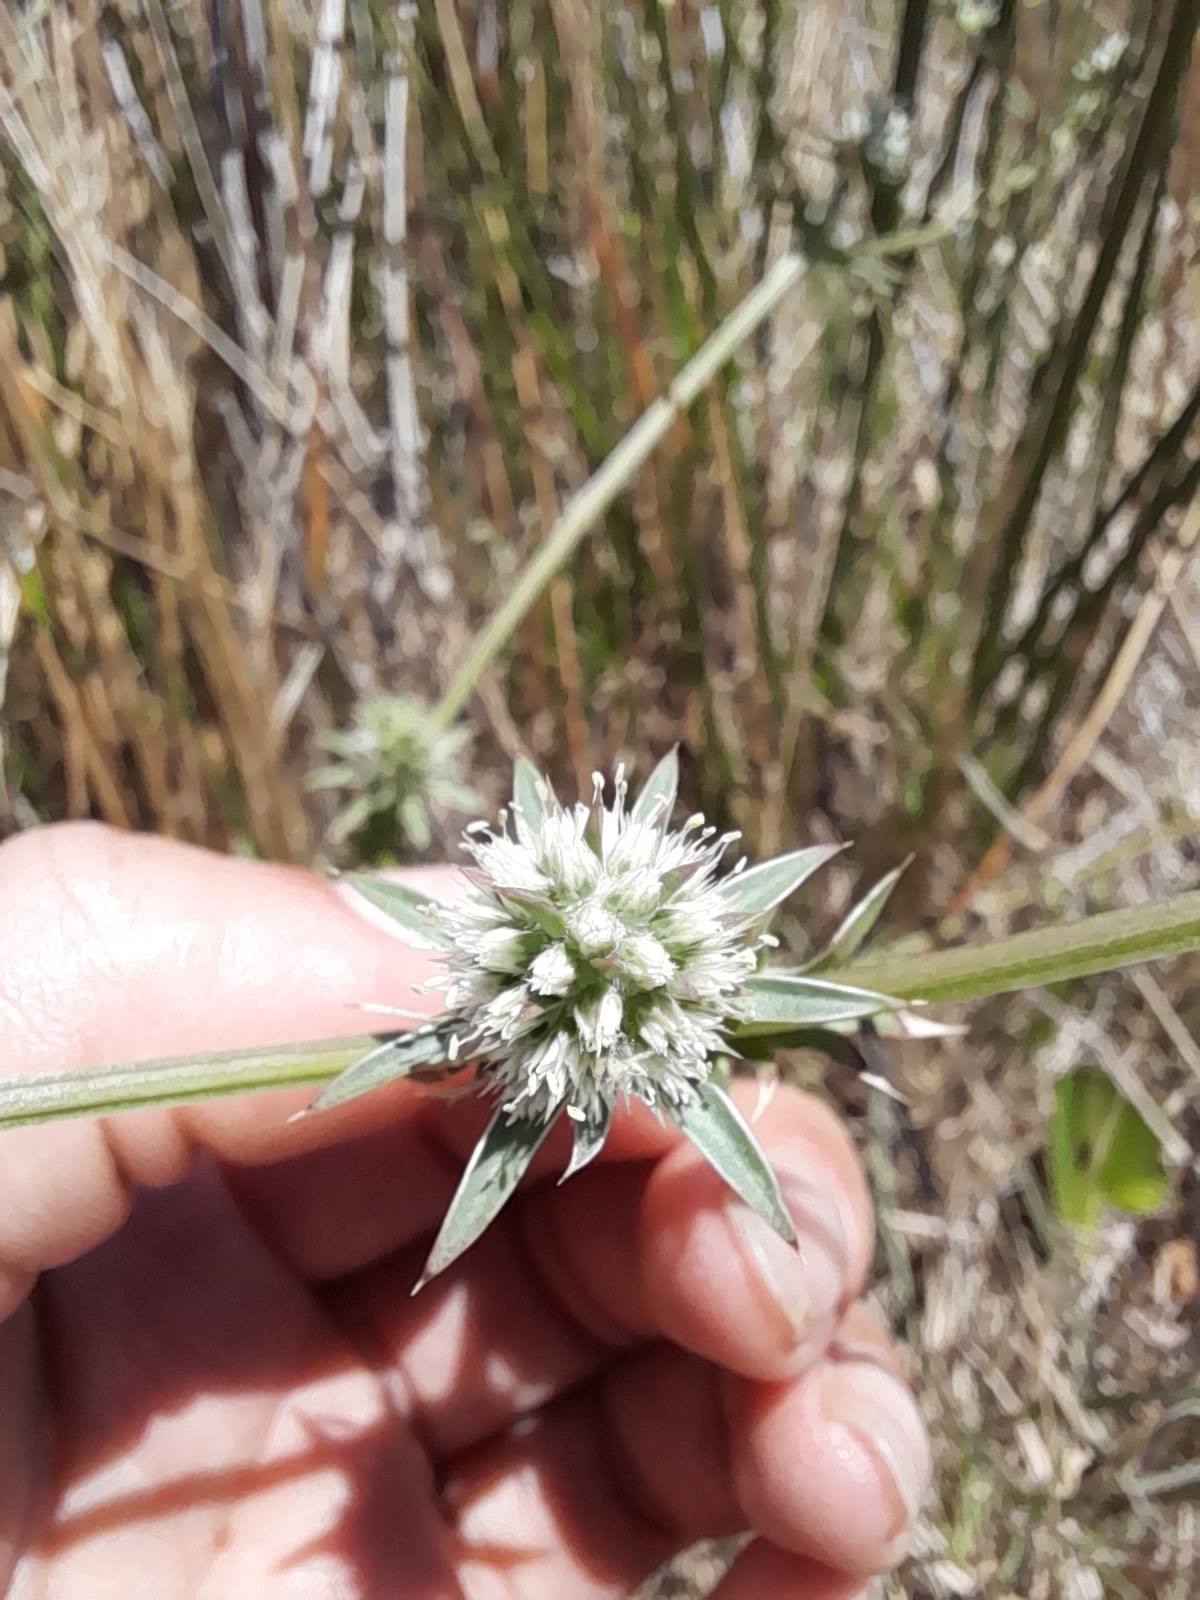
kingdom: Plantae
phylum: Tracheophyta
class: Magnoliopsida
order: Apiales
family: Apiaceae
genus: Eryngium
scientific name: Eryngium nudicaule
